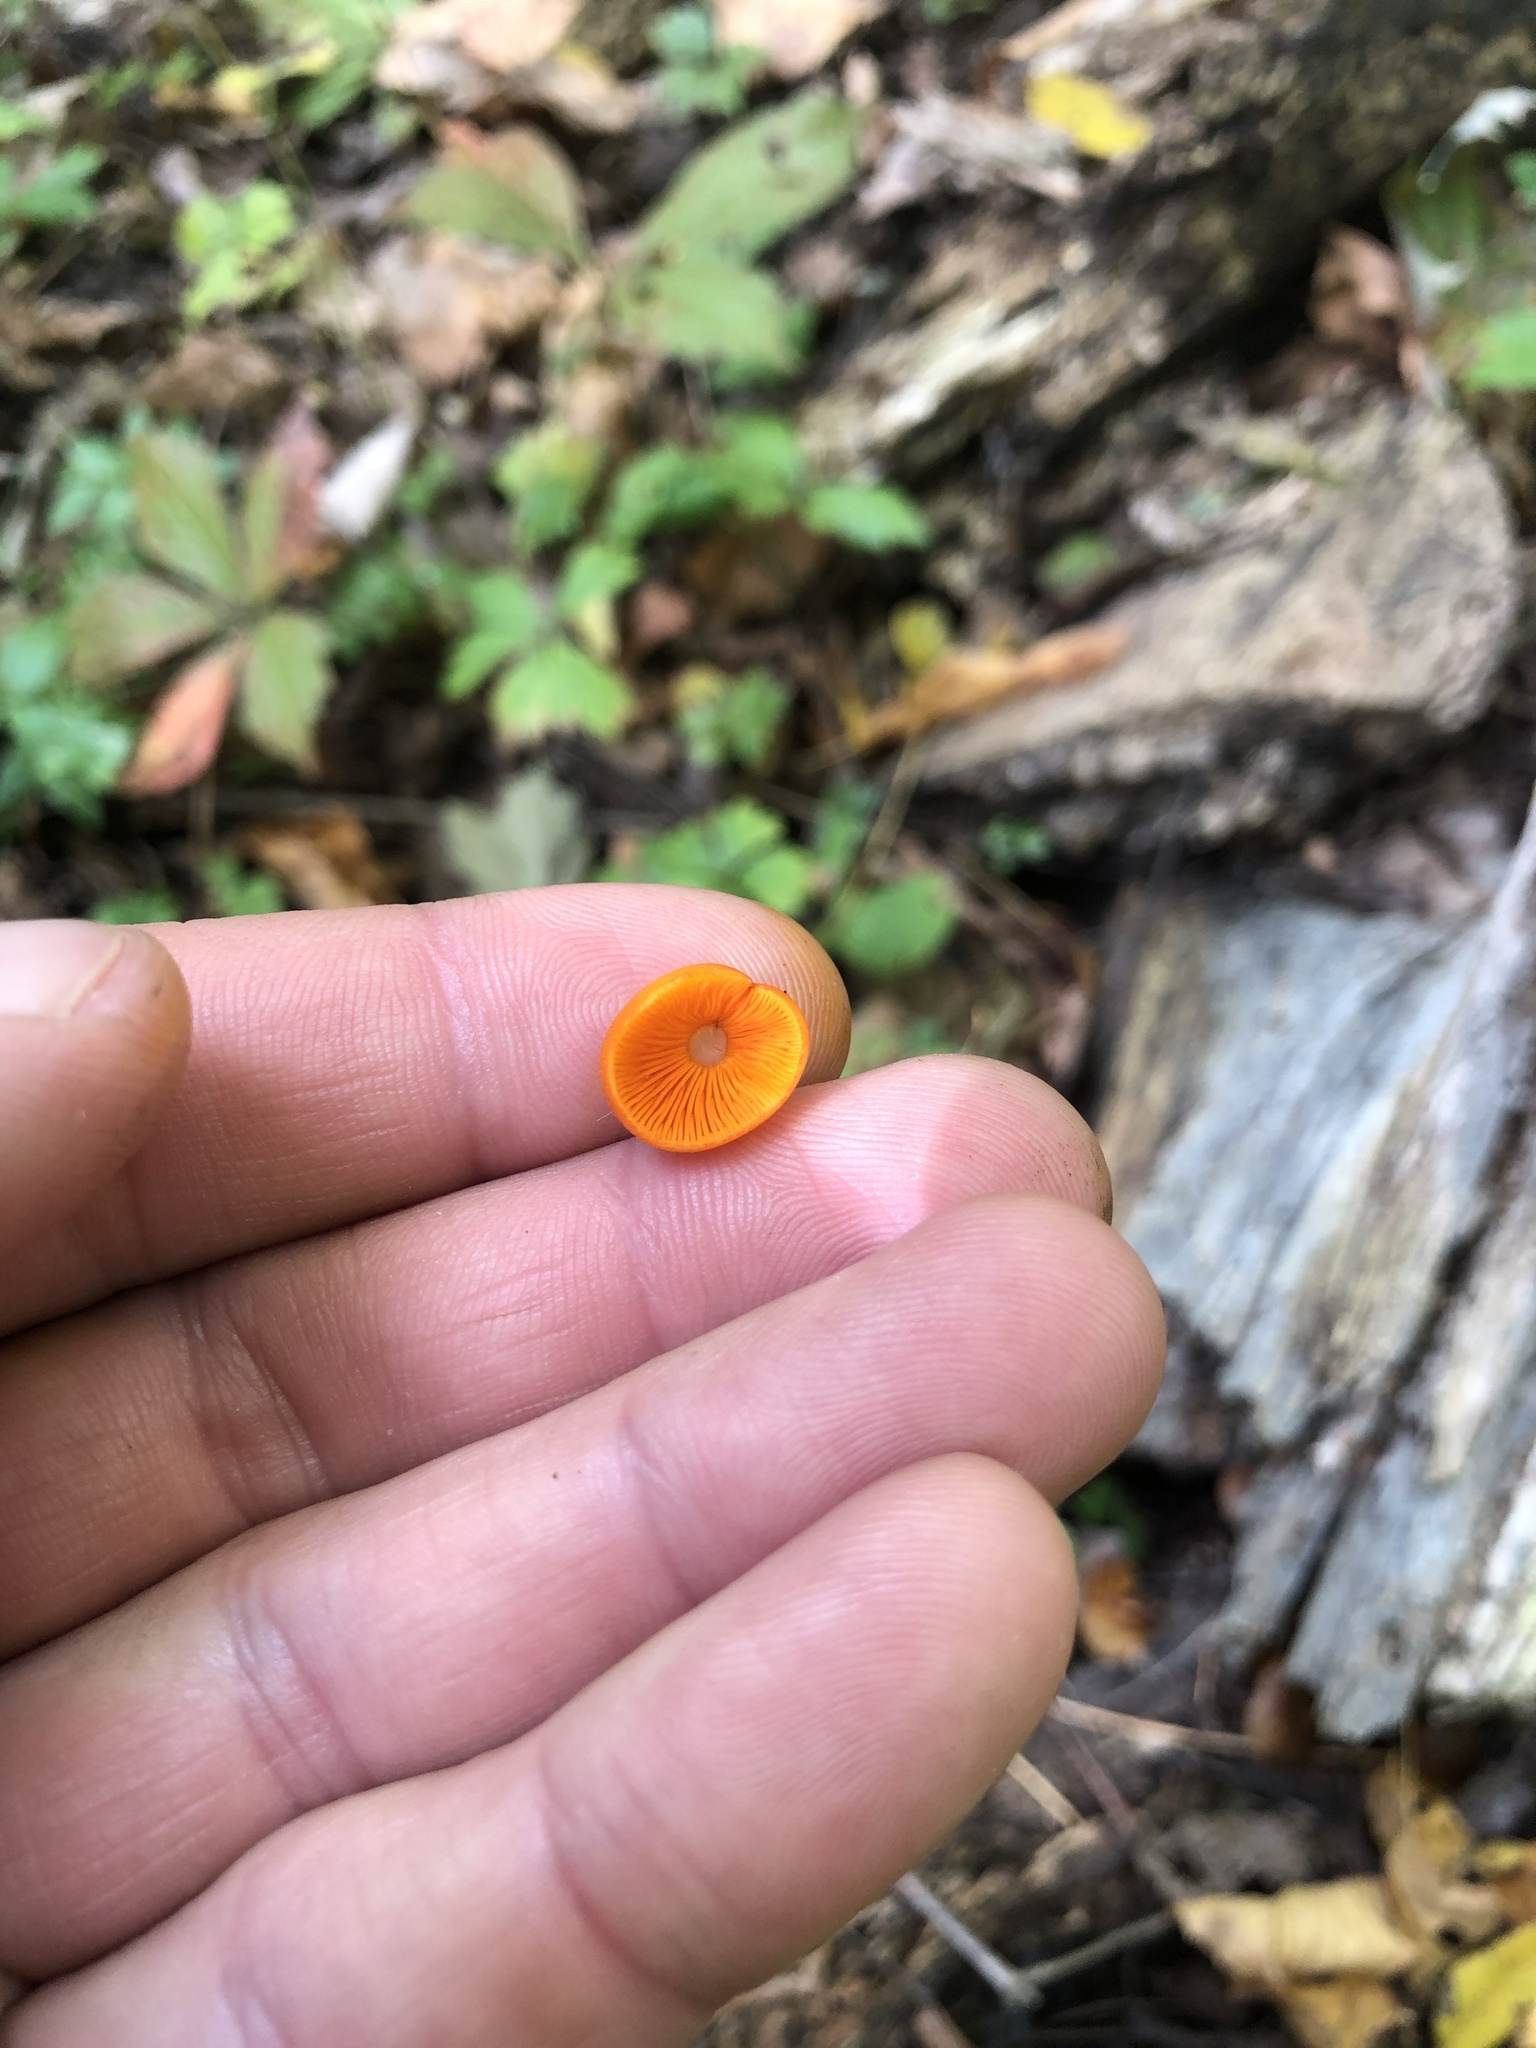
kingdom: Fungi
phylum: Basidiomycota
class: Agaricomycetes
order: Agaricales
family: Mycenaceae
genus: Mycena
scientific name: Mycena leaiana
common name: Orange mycena
